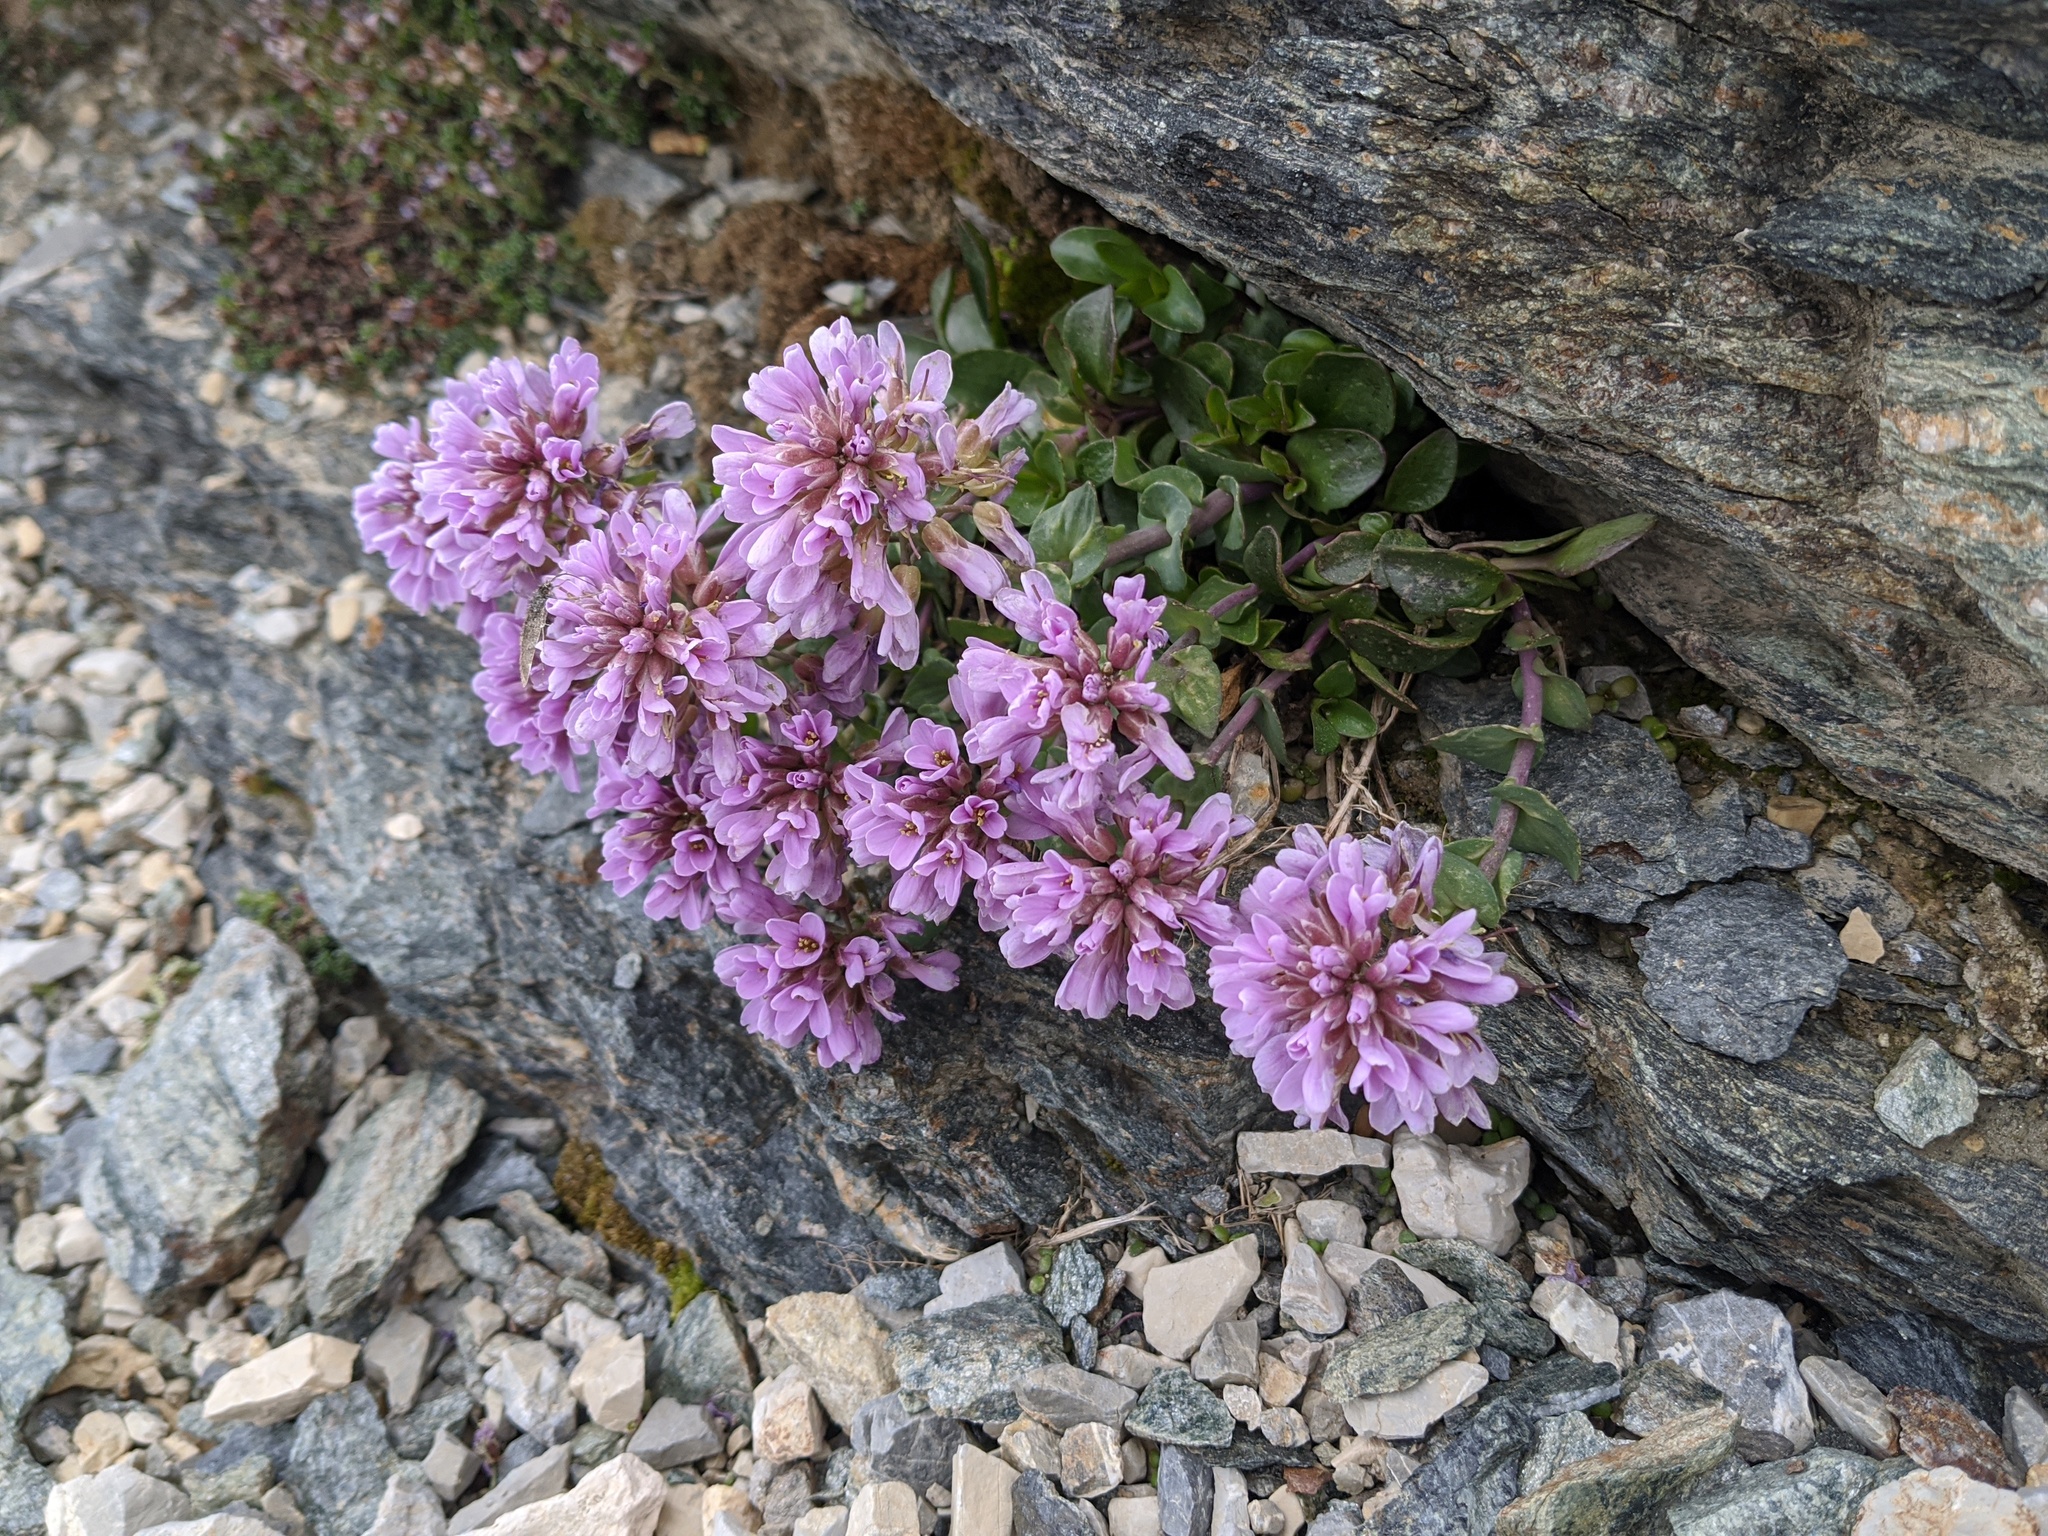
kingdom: Plantae
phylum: Tracheophyta
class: Magnoliopsida
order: Brassicales
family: Brassicaceae
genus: Noccaea
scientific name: Noccaea rotundifolia
